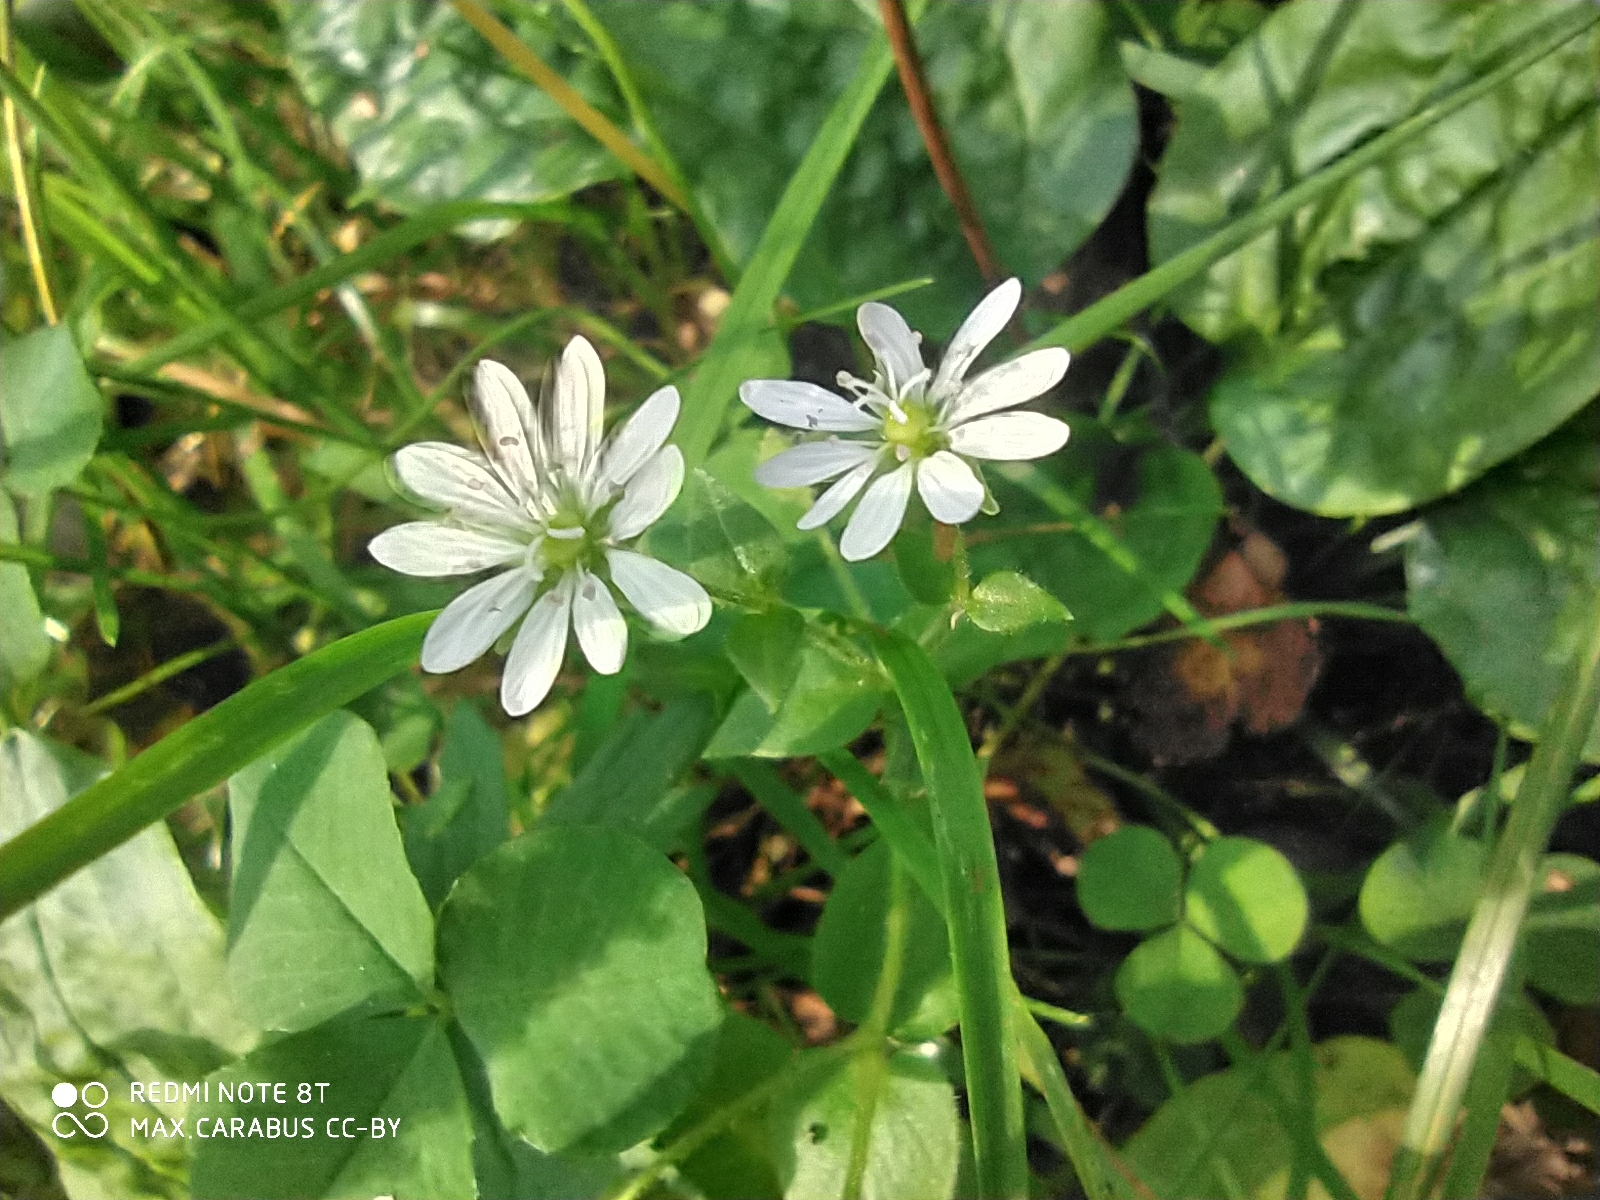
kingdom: Plantae
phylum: Tracheophyta
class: Magnoliopsida
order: Caryophyllales
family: Caryophyllaceae
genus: Stellaria
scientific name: Stellaria aquatica
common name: Water chickweed
